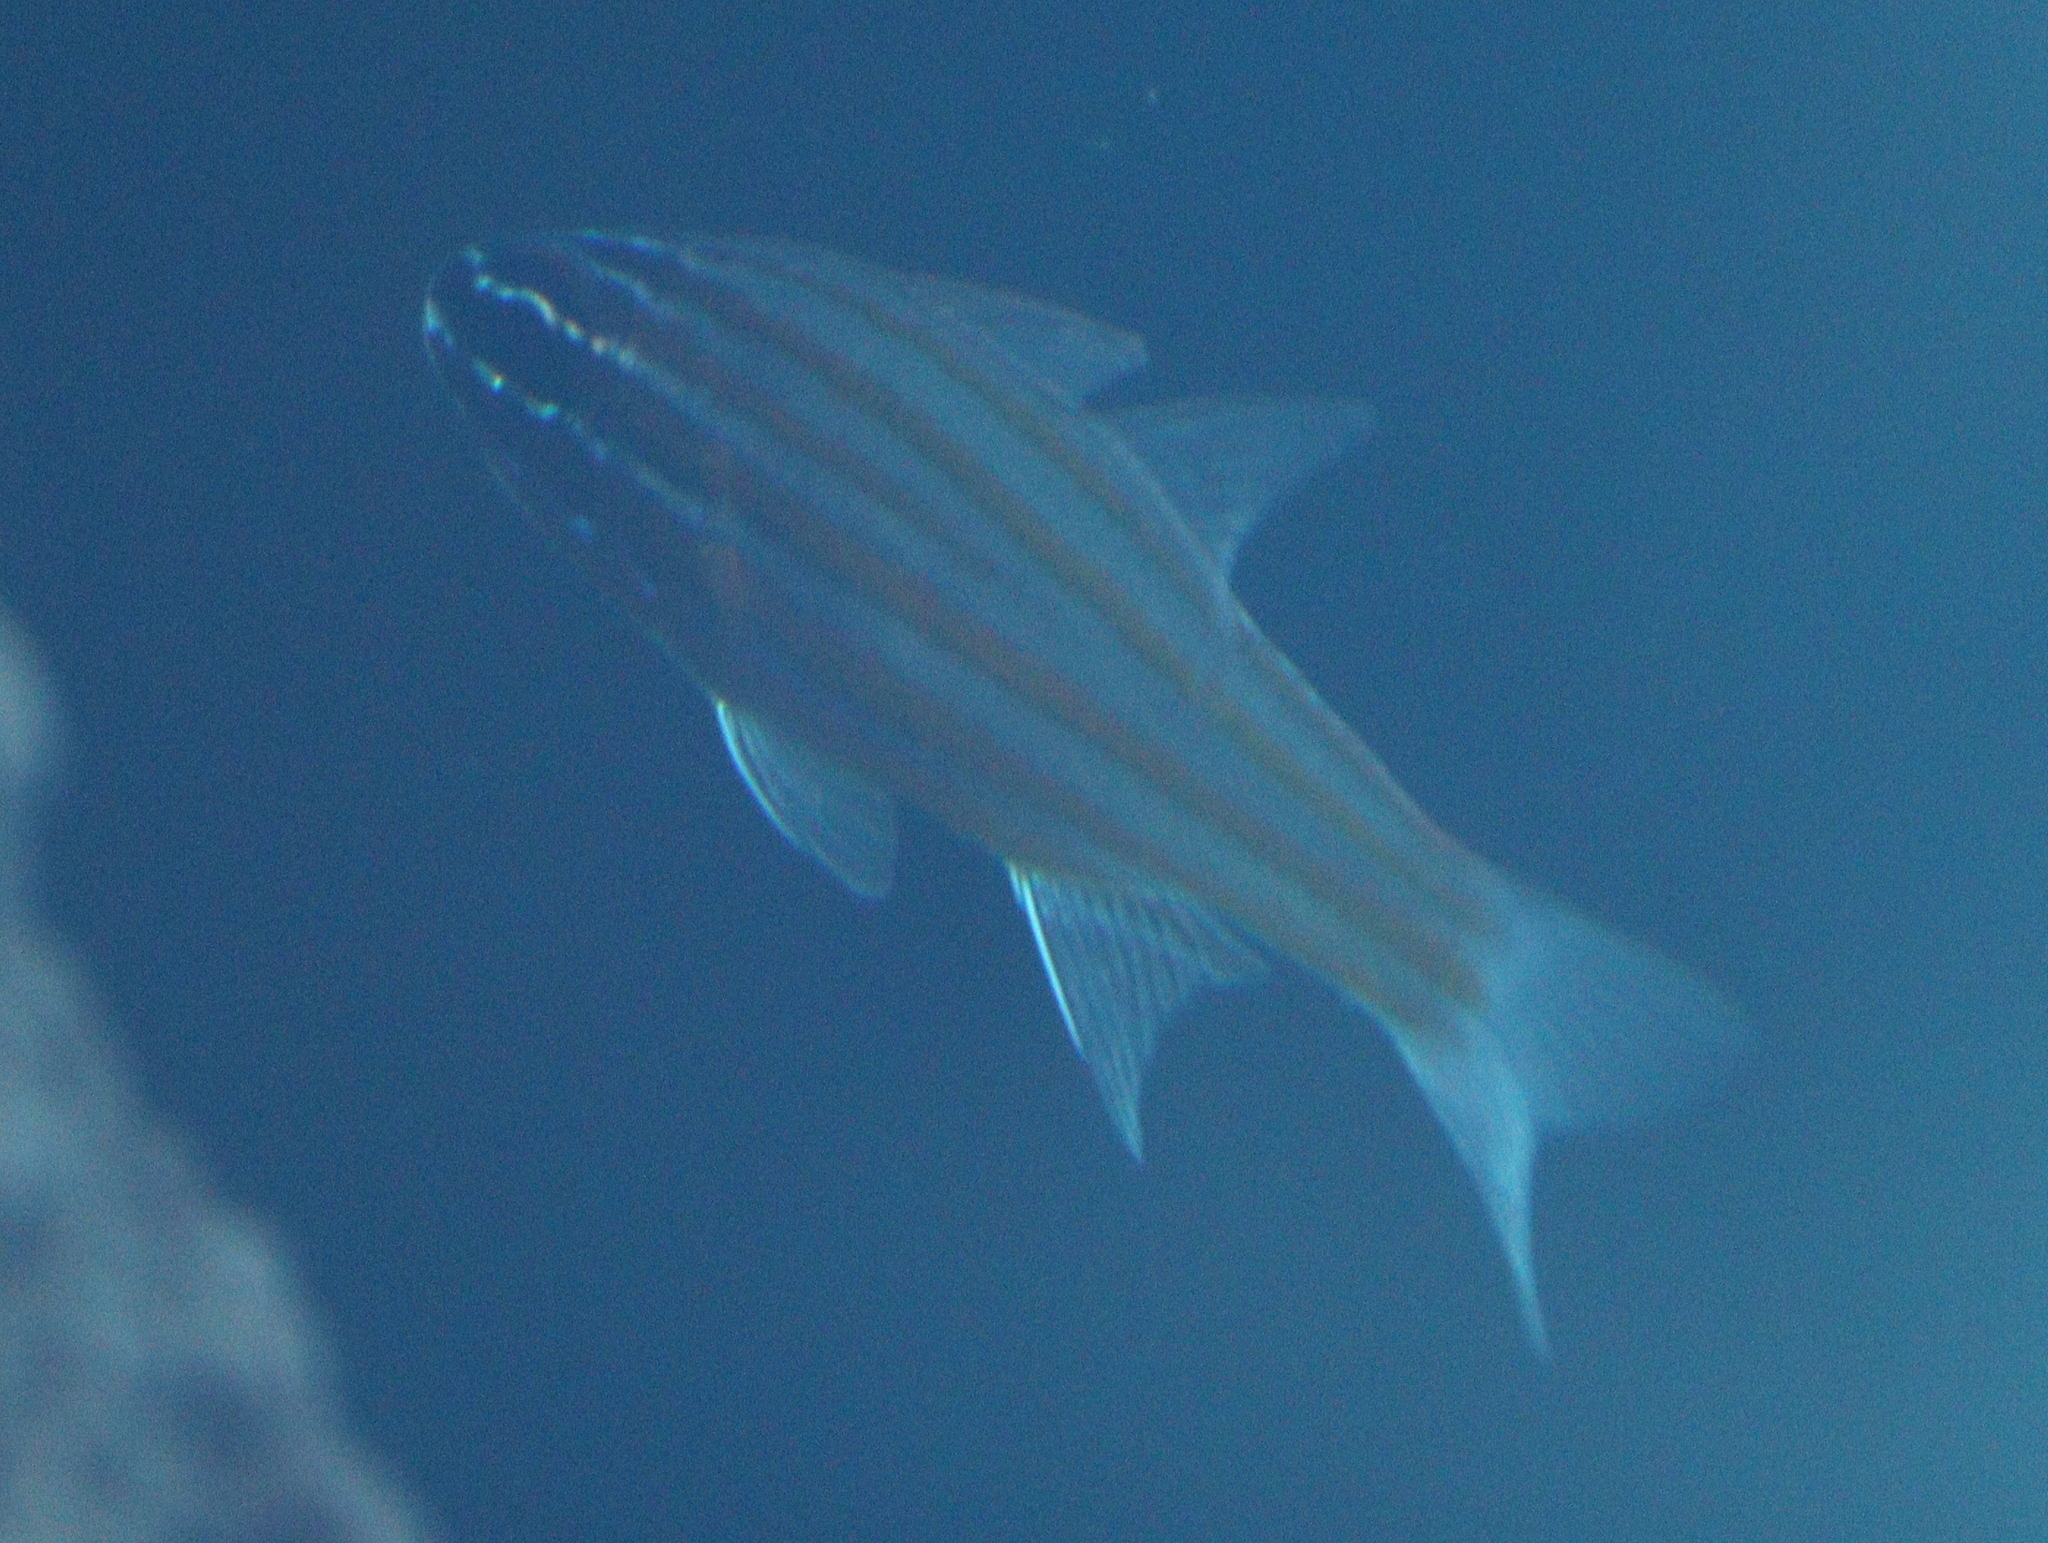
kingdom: Animalia
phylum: Chordata
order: Perciformes
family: Apogonidae
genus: Ostorhinchus
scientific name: Ostorhinchus cyanosoma
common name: Yellow-striped cardinalfish
